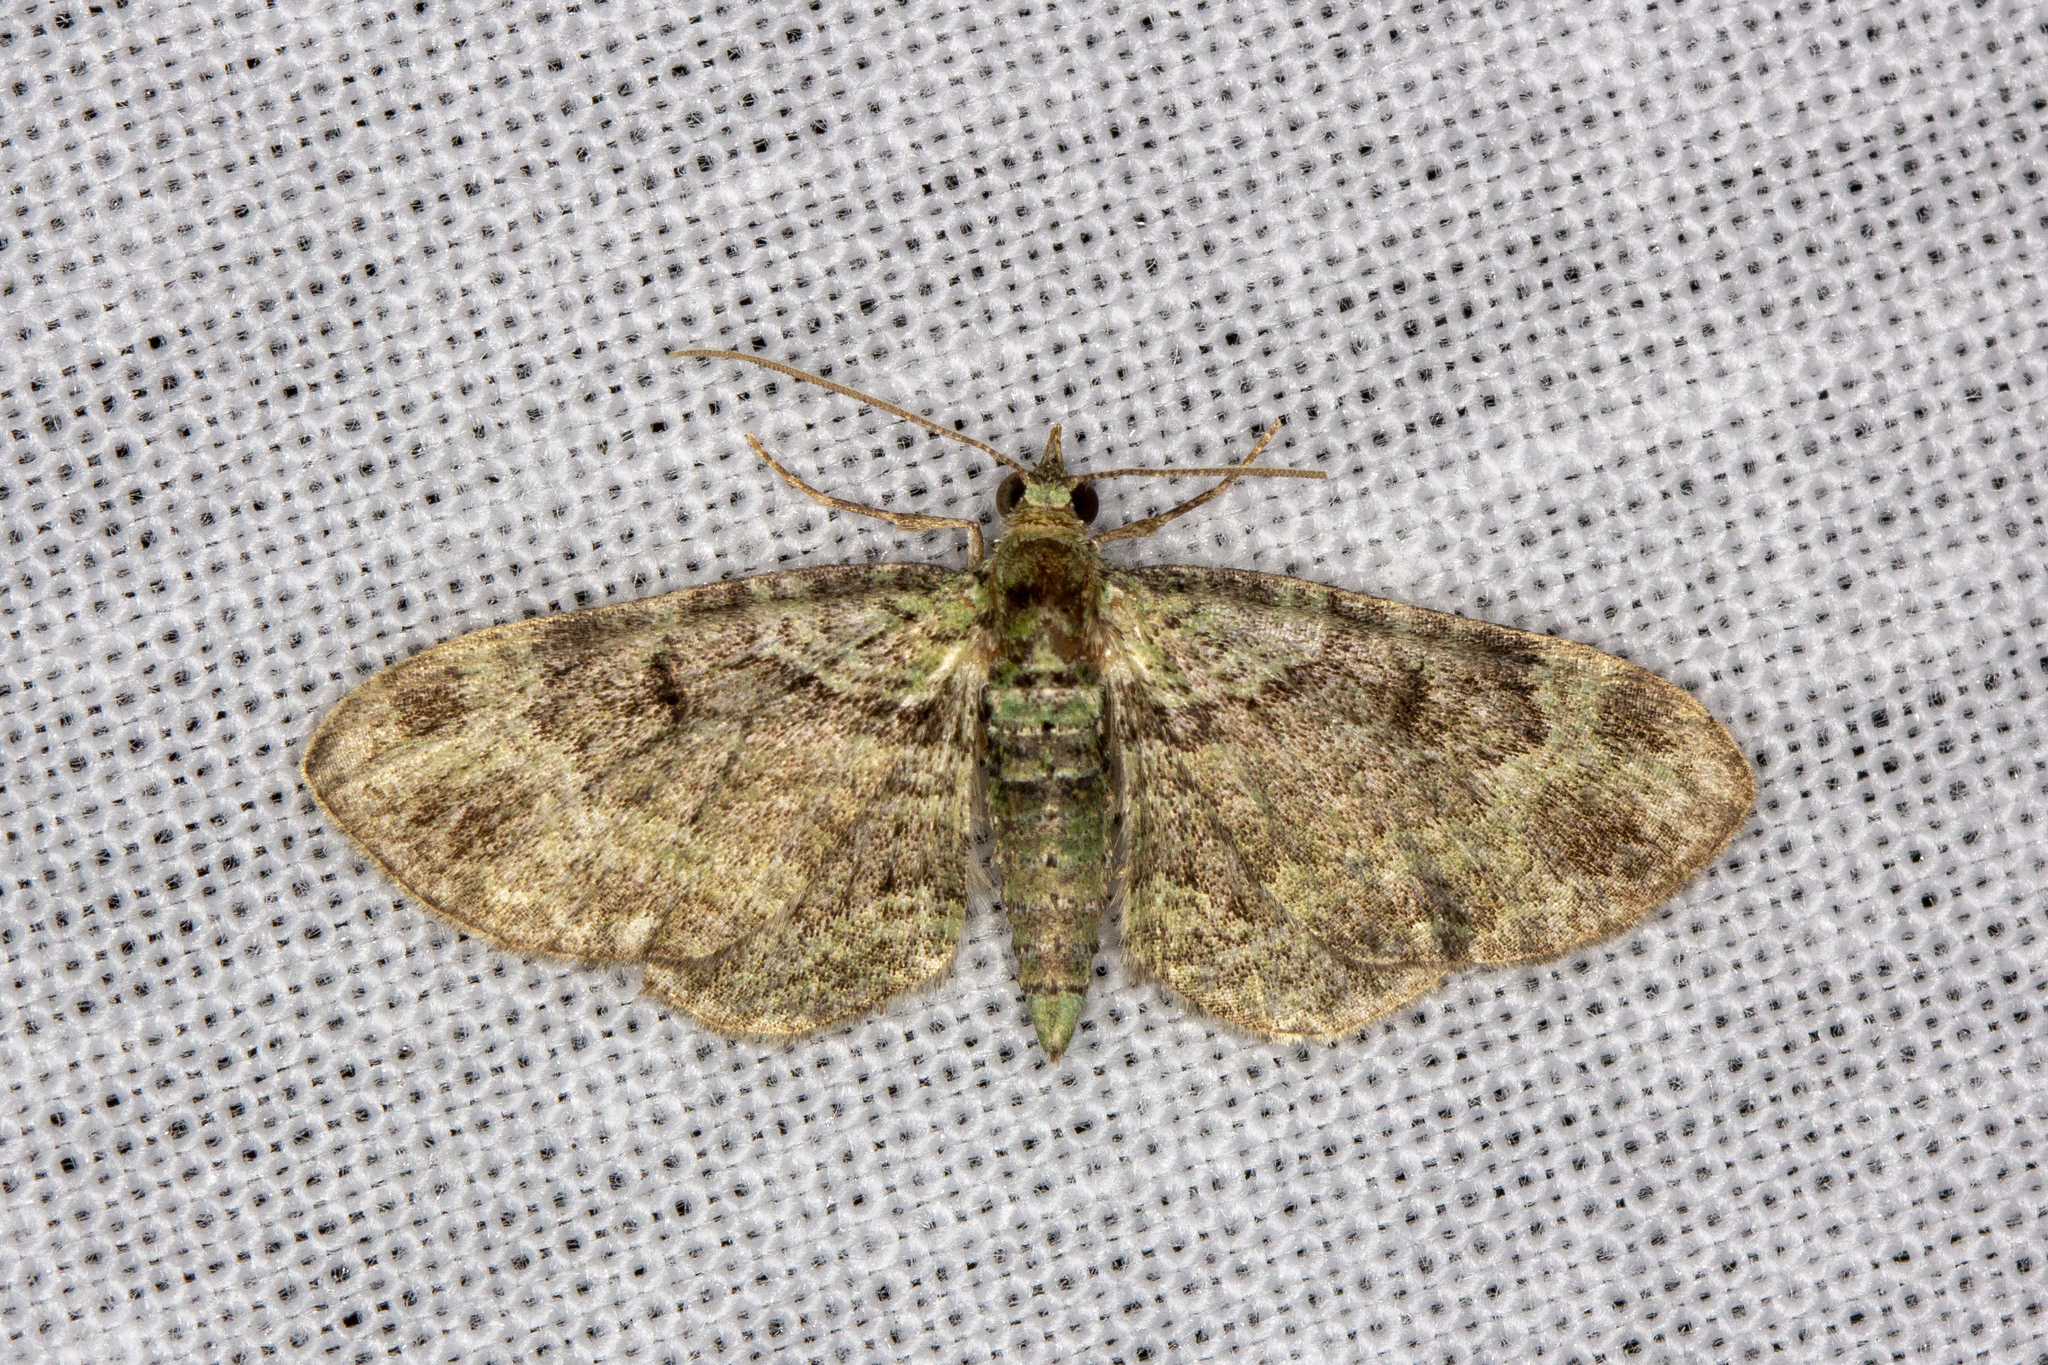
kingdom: Animalia
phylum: Arthropoda
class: Insecta
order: Lepidoptera
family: Geometridae
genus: Pasiphila
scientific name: Pasiphila rectangulata
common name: Green pug
